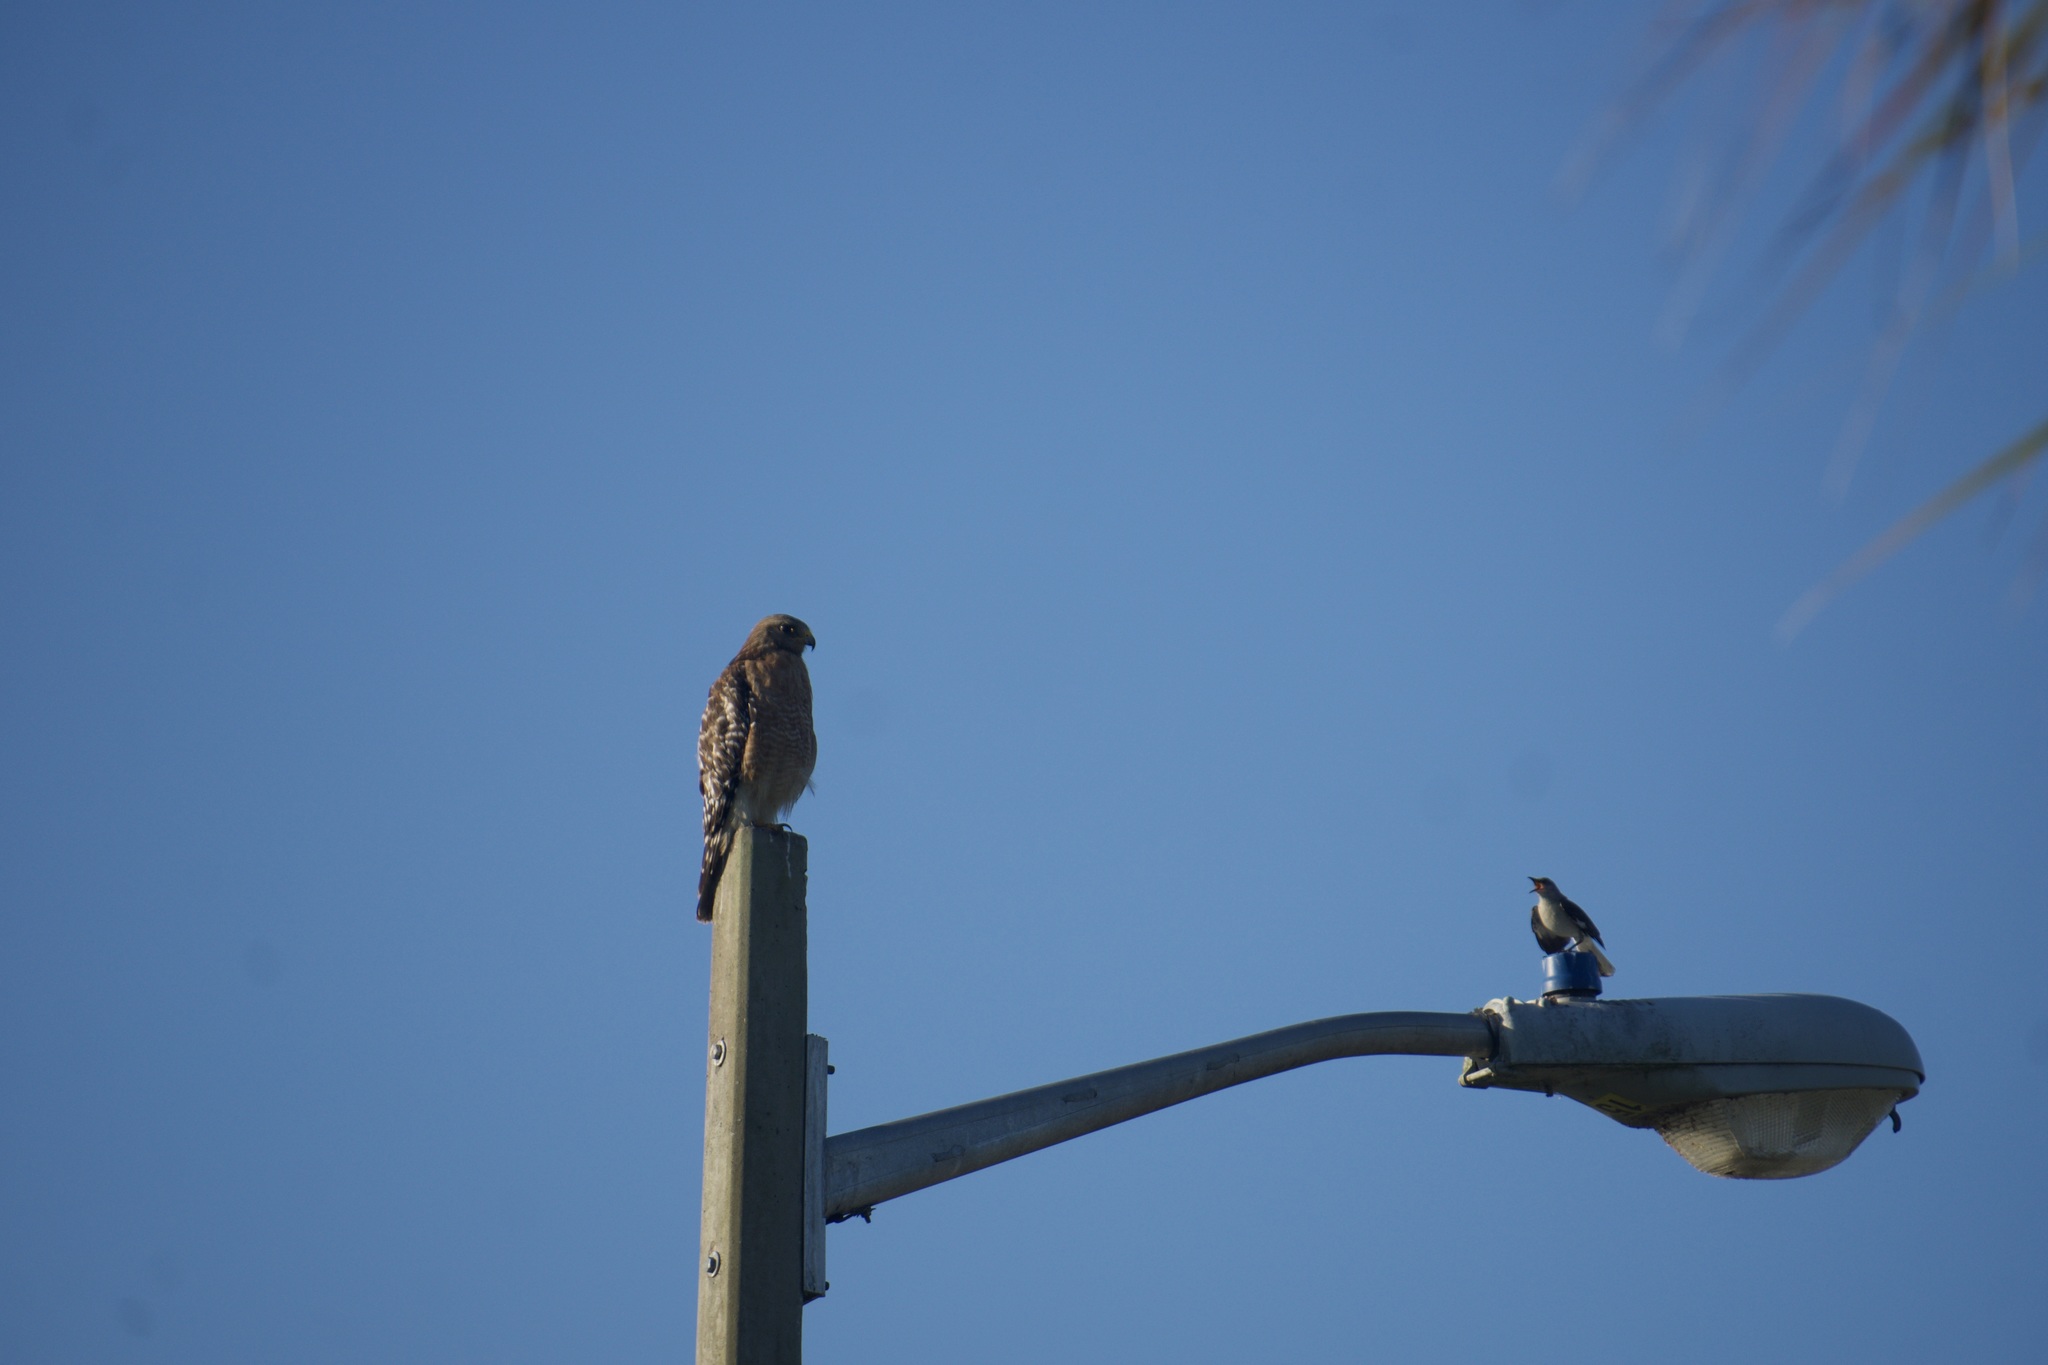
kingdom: Animalia
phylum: Chordata
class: Aves
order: Accipitriformes
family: Accipitridae
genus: Buteo
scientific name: Buteo lineatus
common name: Red-shouldered hawk
